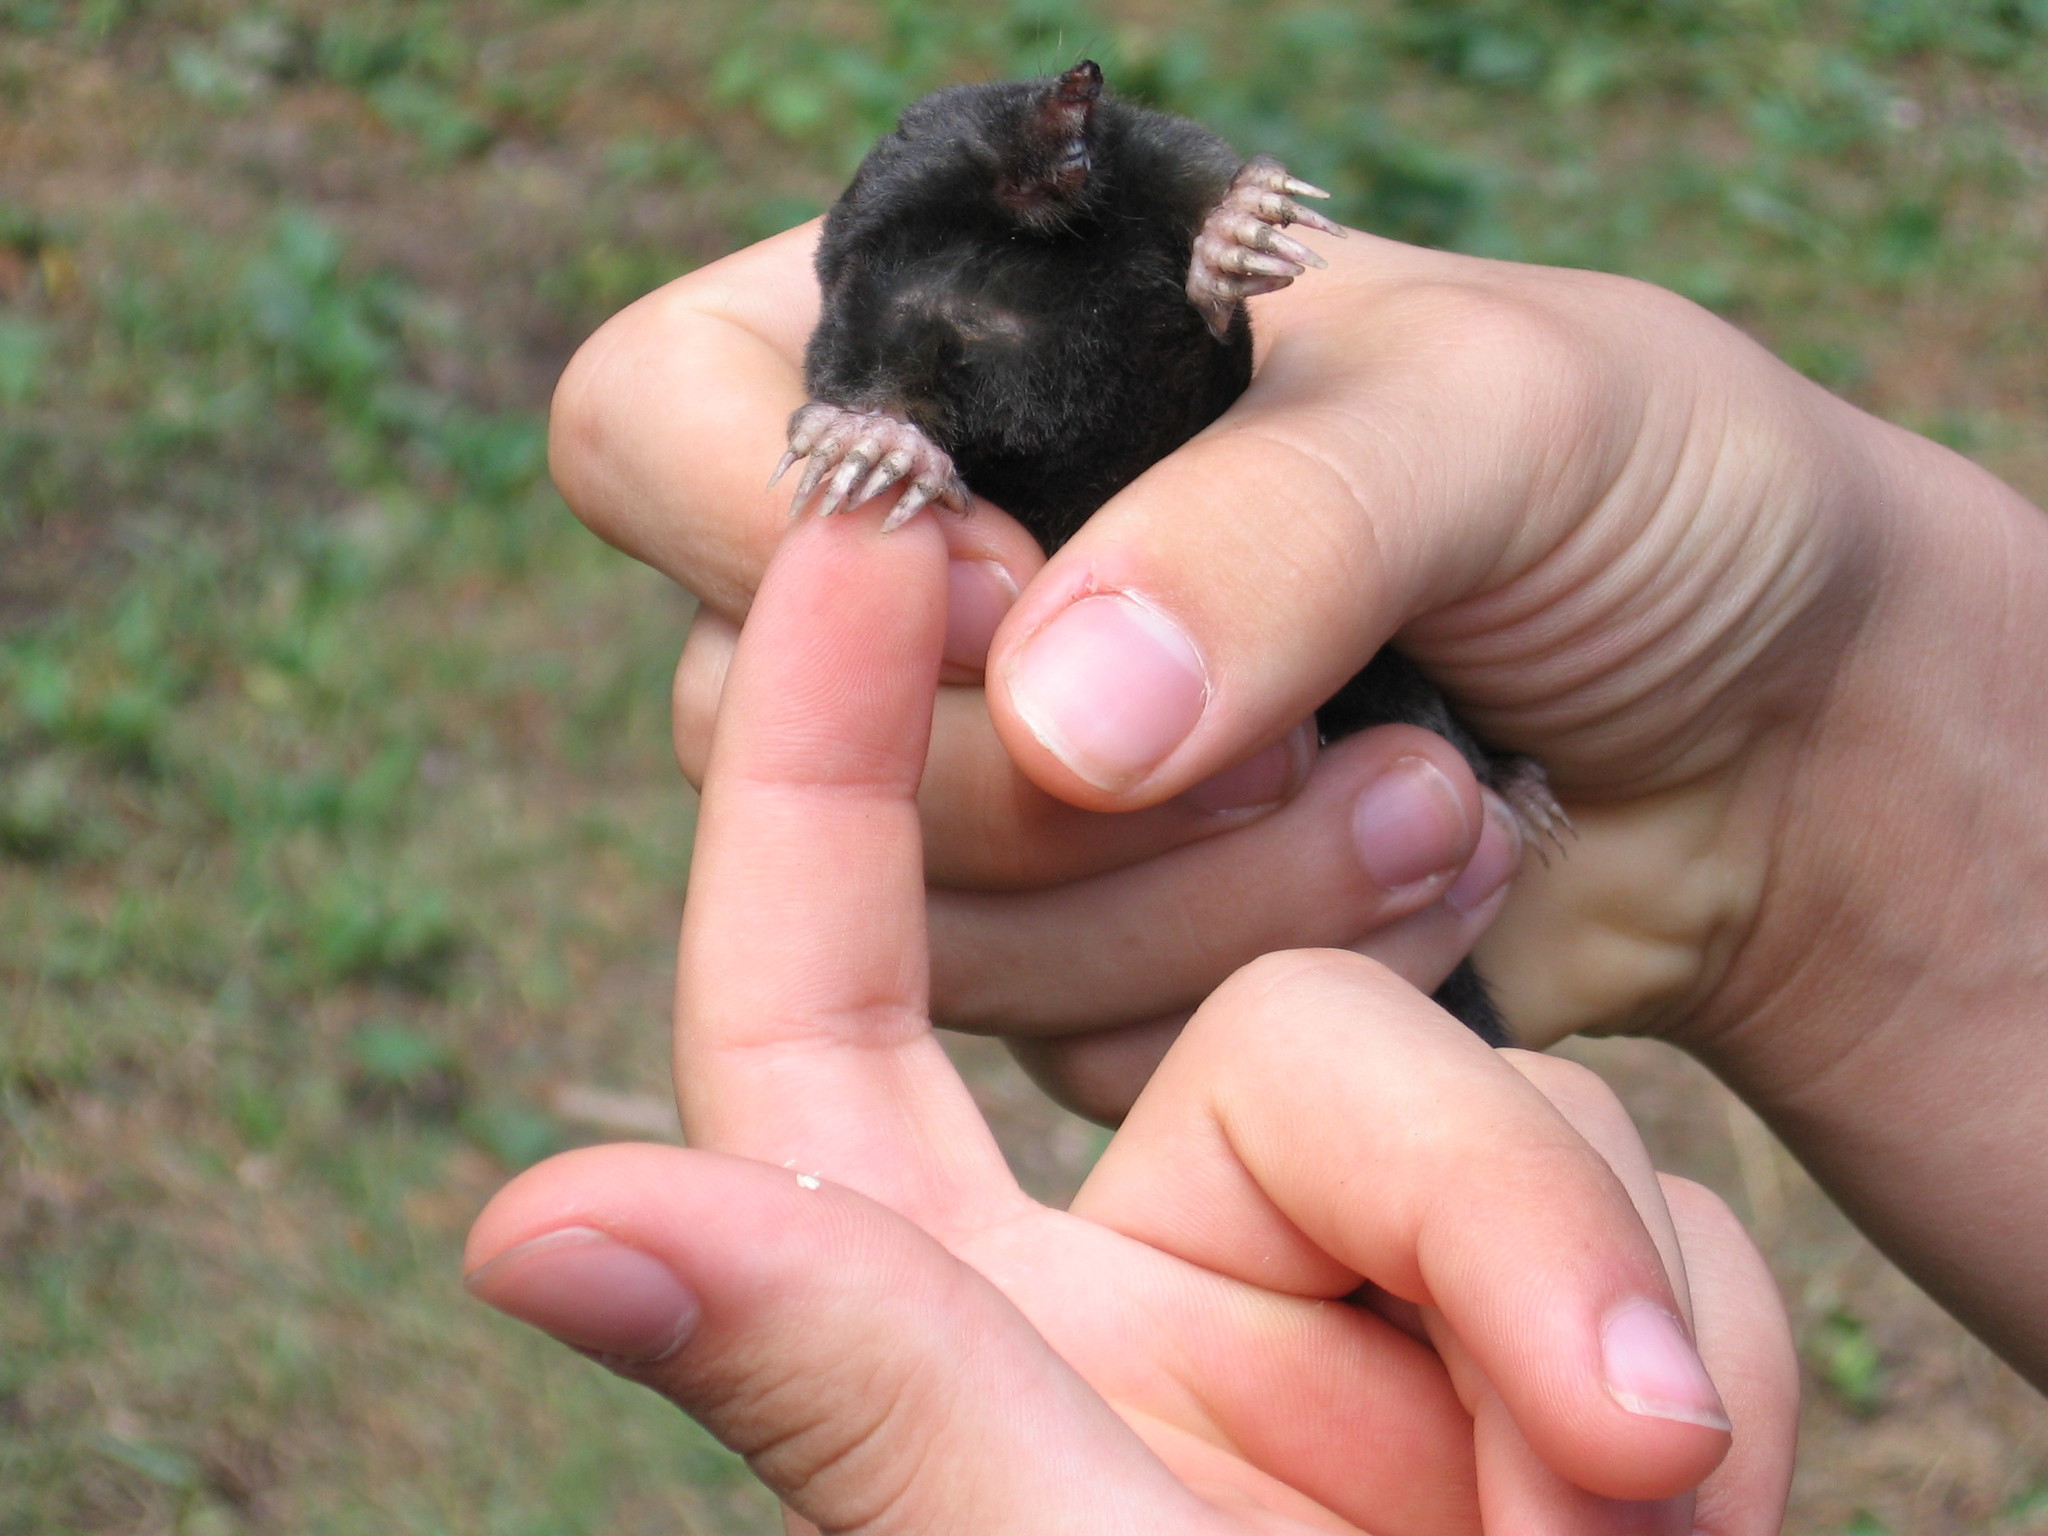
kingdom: Animalia
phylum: Chordata
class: Mammalia
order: Soricomorpha
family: Talpidae
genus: Talpa
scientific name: Talpa europaea
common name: European mole
